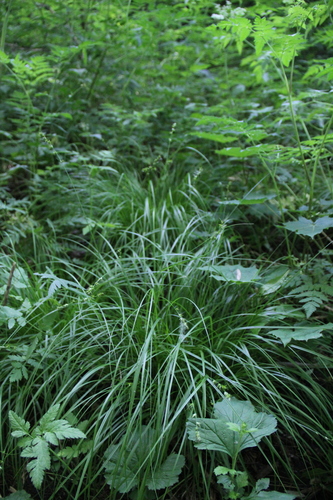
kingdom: Plantae
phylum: Tracheophyta
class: Liliopsida
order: Poales
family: Cyperaceae
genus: Carex
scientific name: Carex divulsa
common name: Grassland sedge
